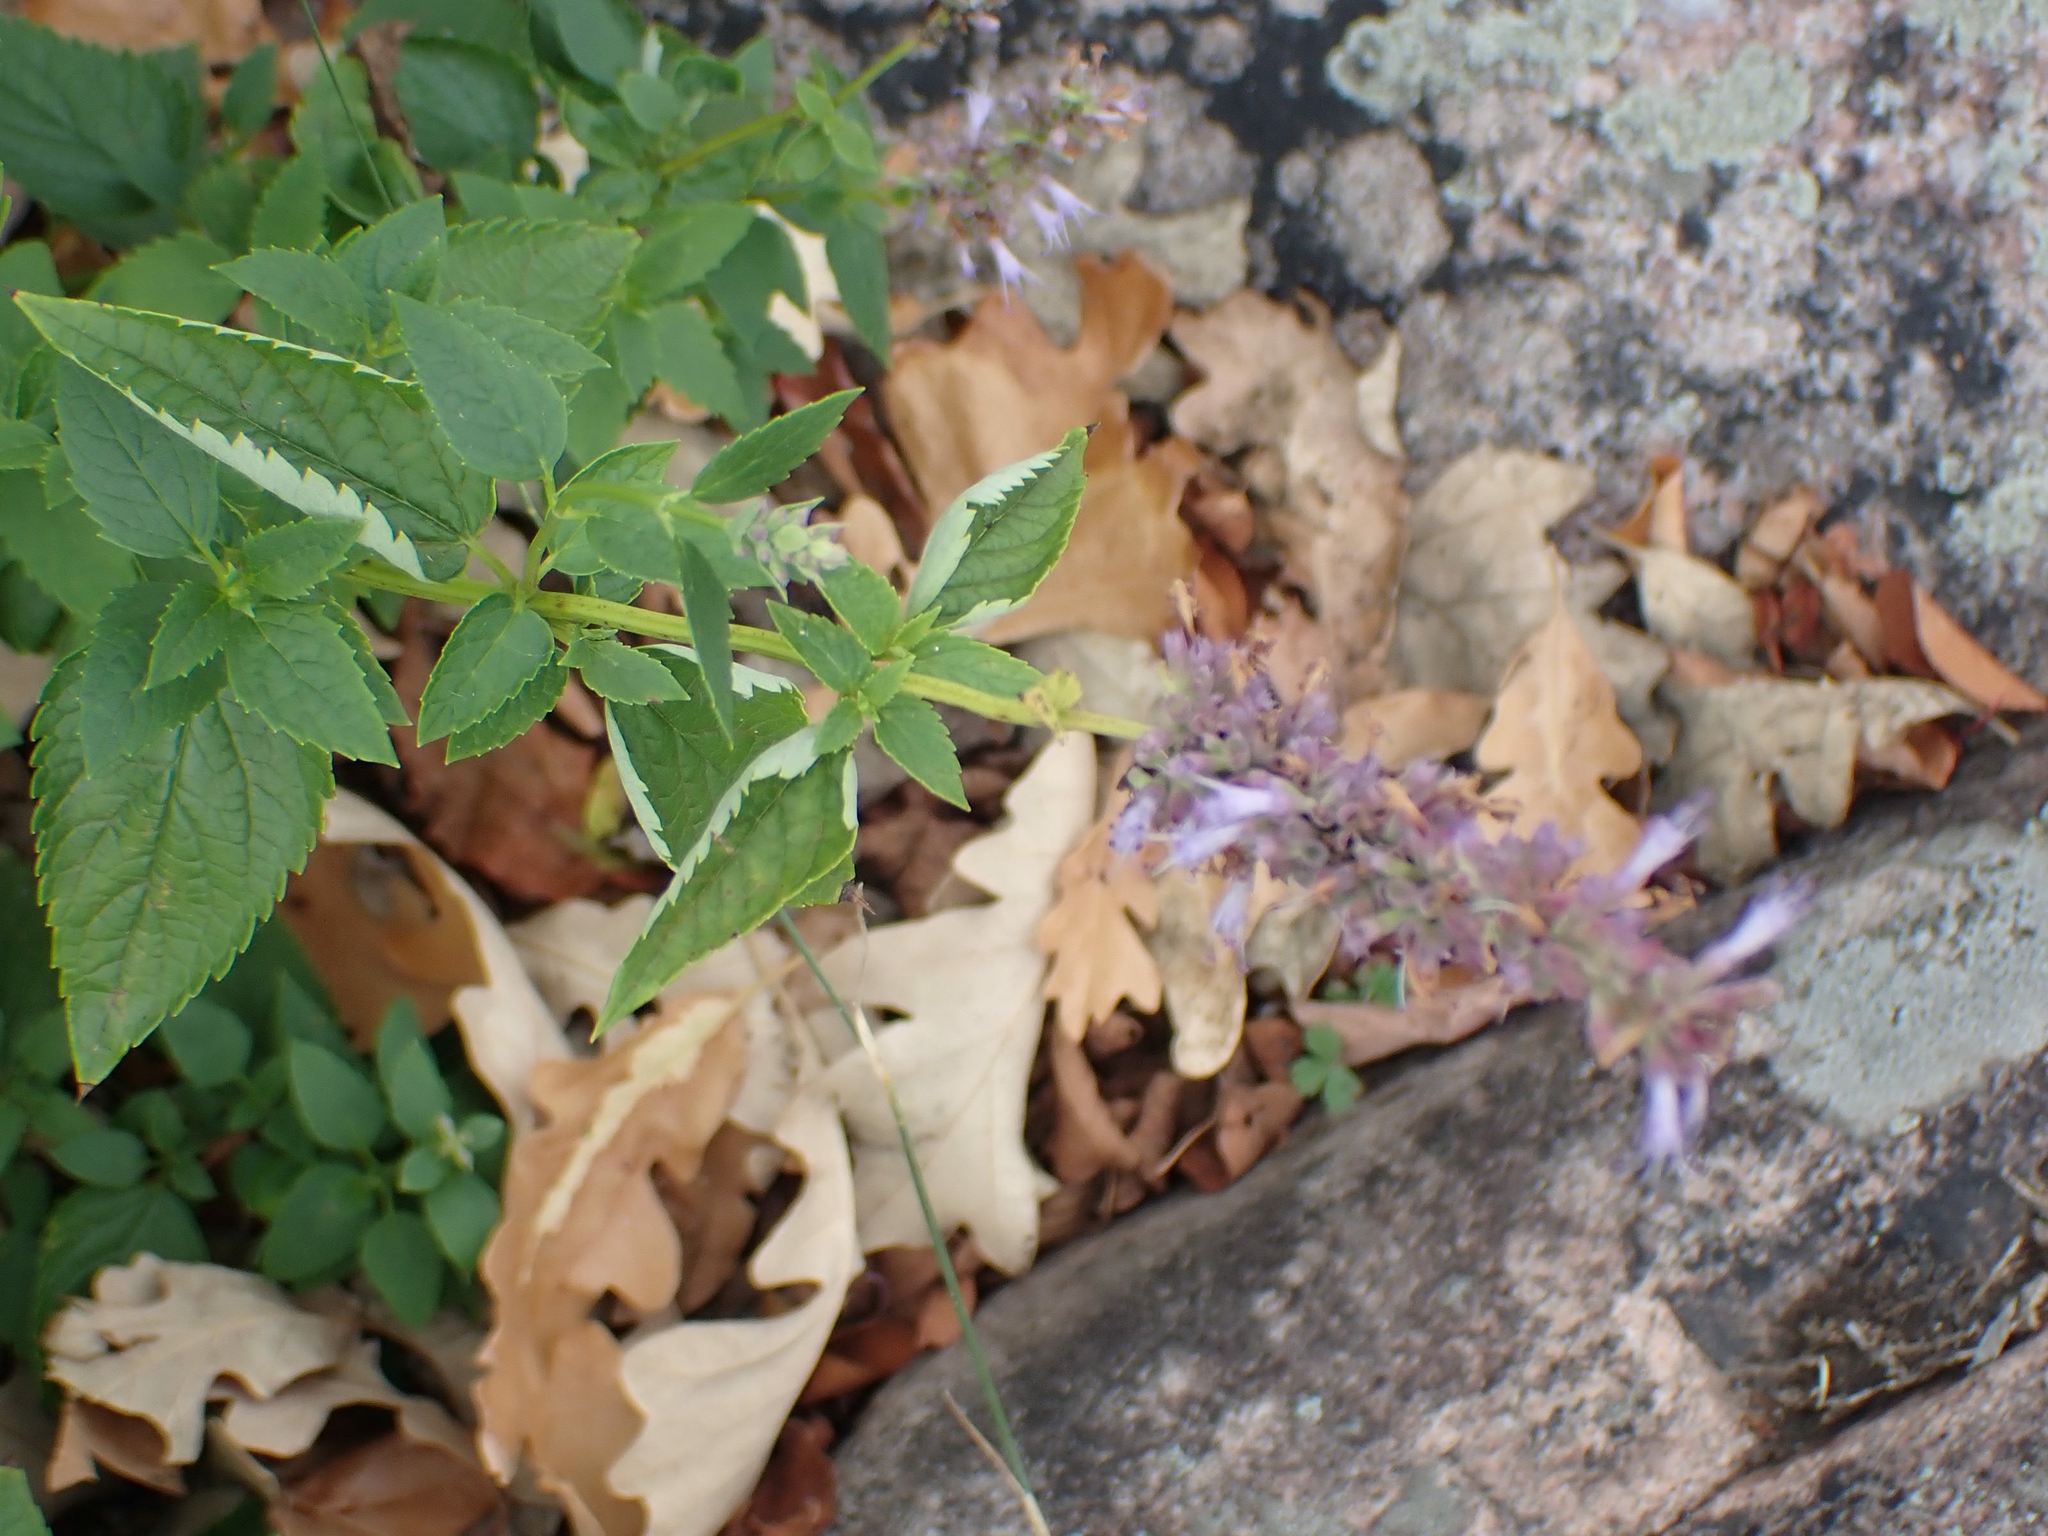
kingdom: Plantae
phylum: Tracheophyta
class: Magnoliopsida
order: Lamiales
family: Lamiaceae
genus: Agastache
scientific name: Agastache foeniculum
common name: Anise hyssop
